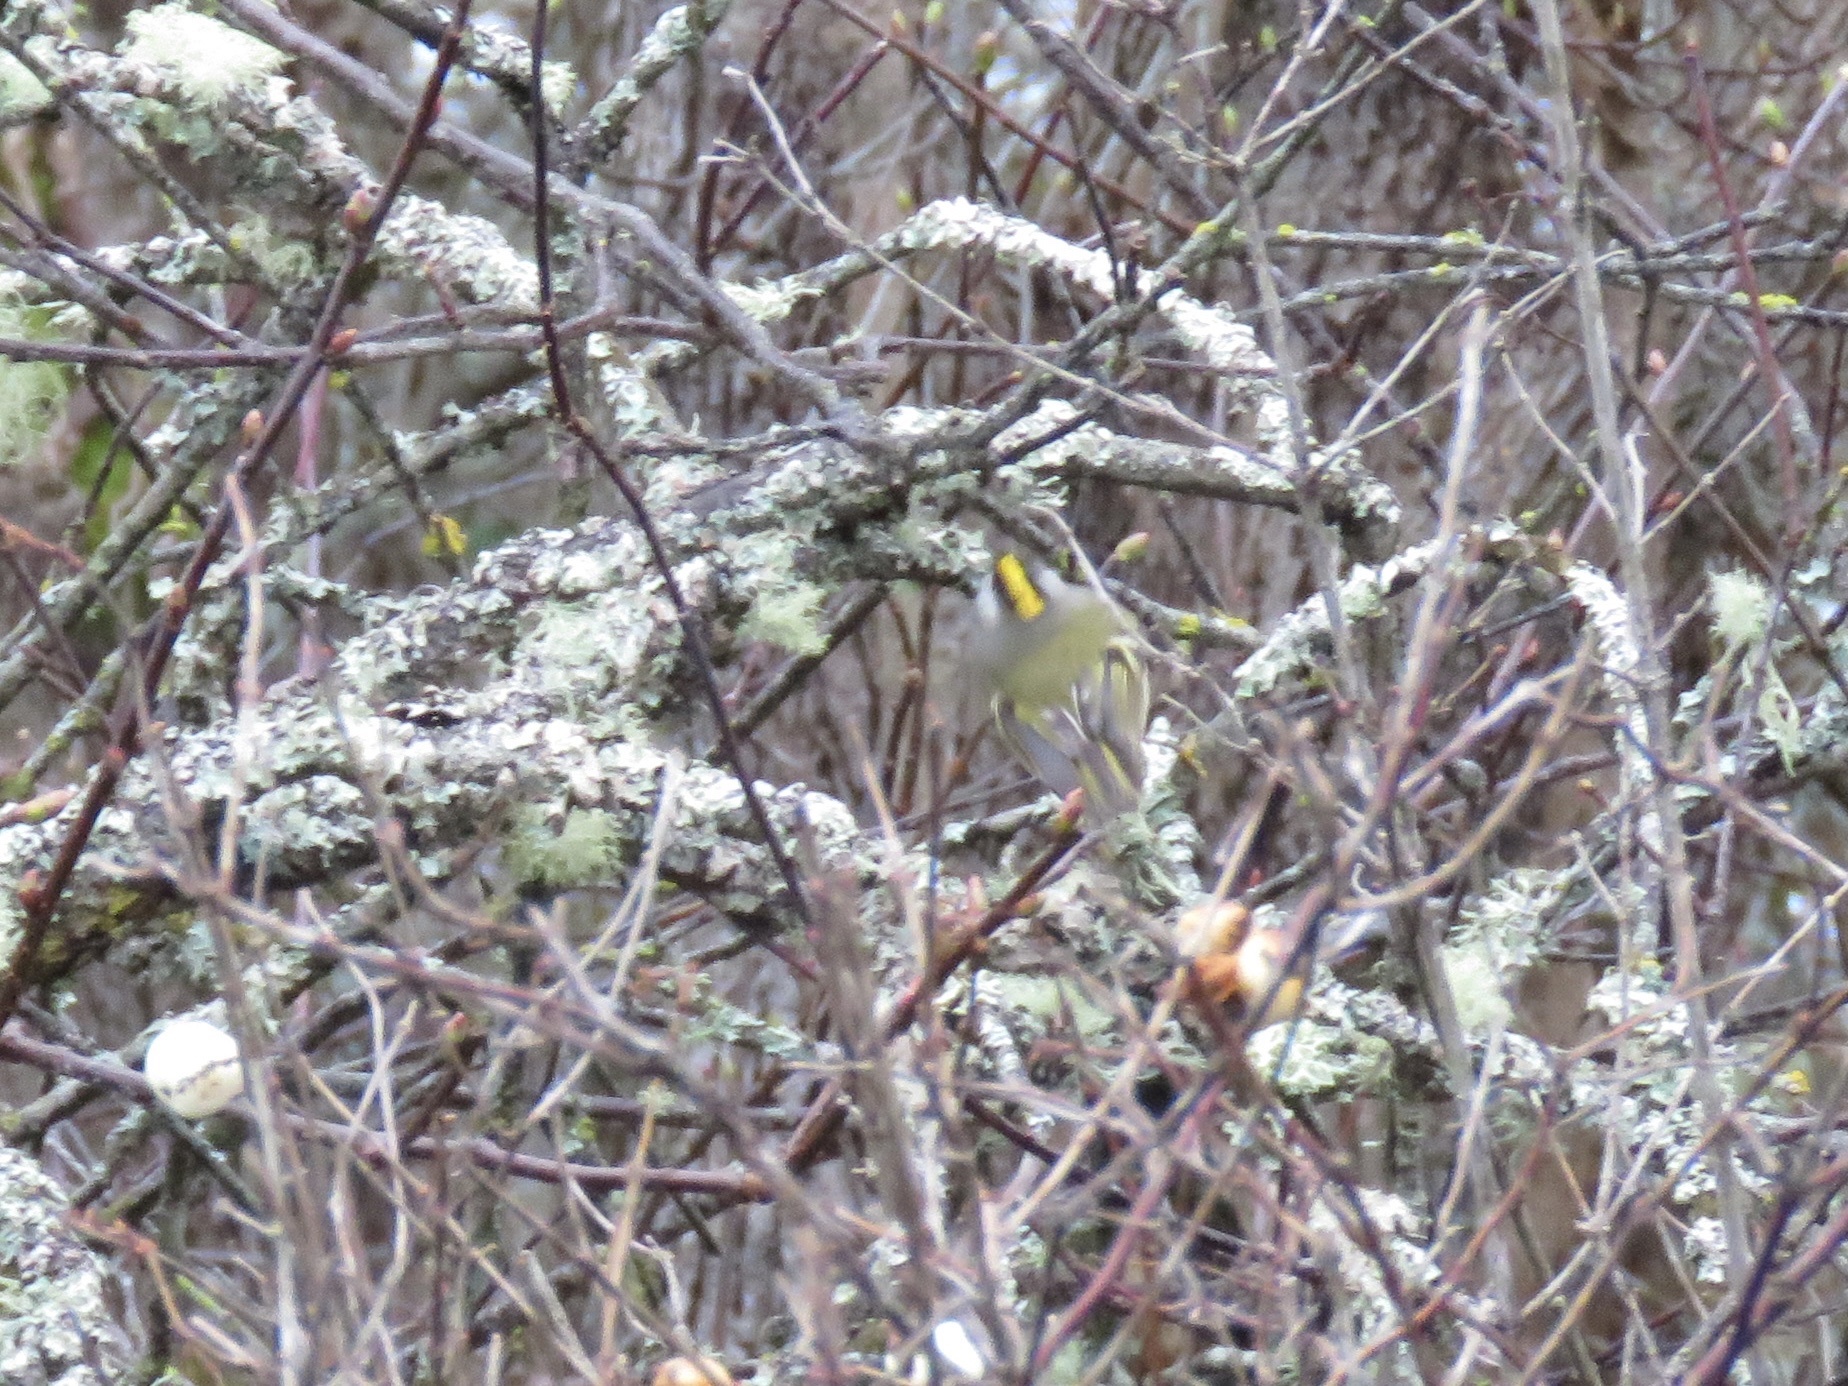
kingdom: Animalia
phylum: Chordata
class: Aves
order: Passeriformes
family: Regulidae
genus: Regulus
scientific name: Regulus satrapa
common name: Golden-crowned kinglet
